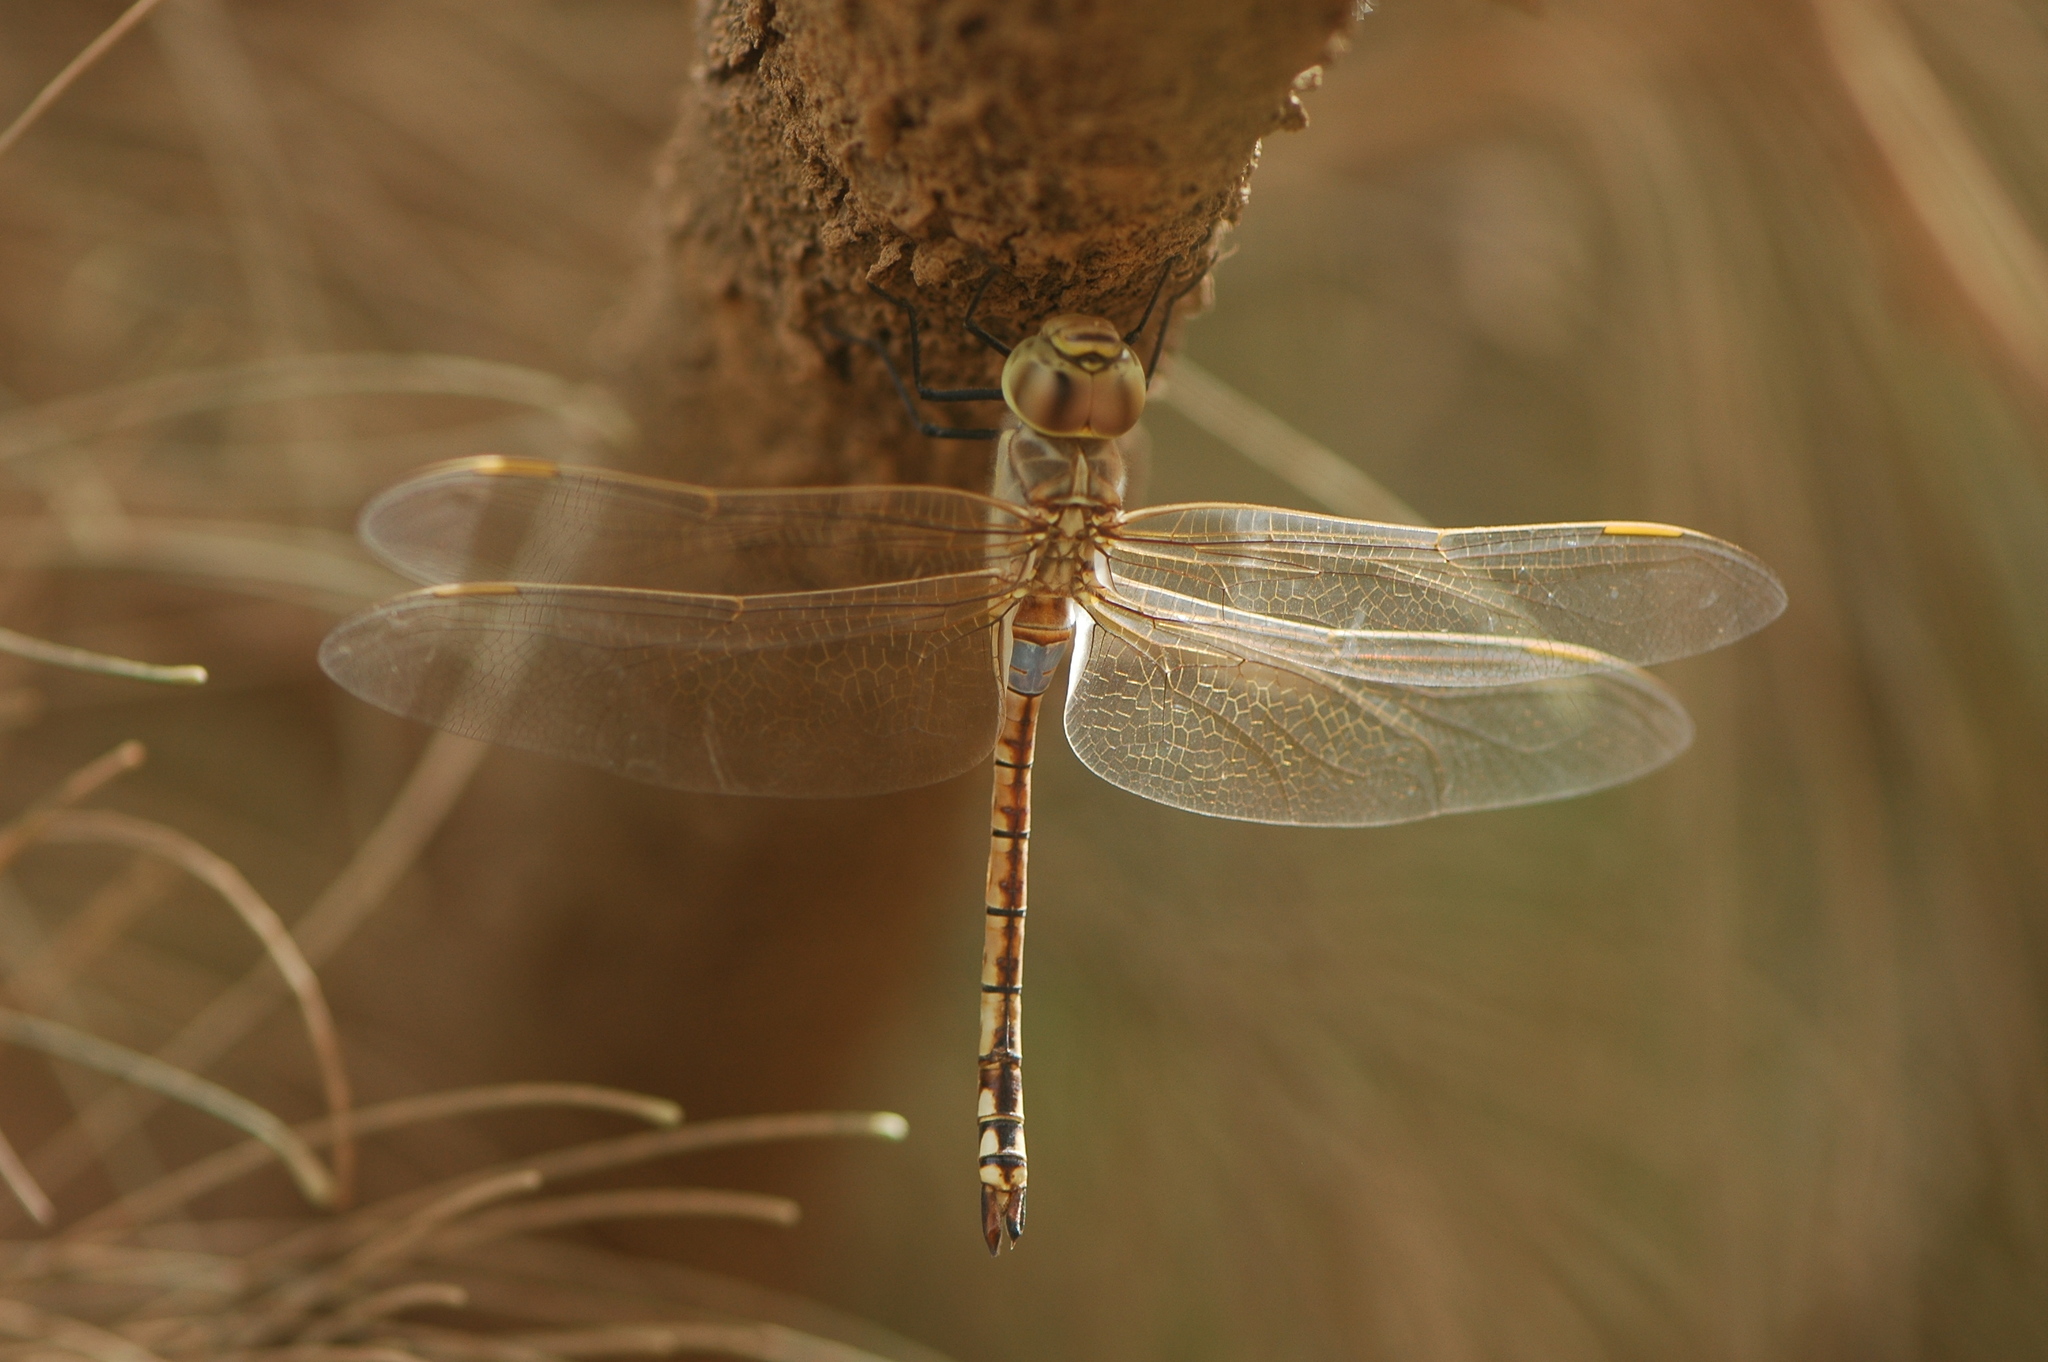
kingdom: Animalia
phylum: Arthropoda
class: Insecta
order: Odonata
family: Aeshnidae
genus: Anax
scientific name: Anax ephippiger
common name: Vagrant emperor
